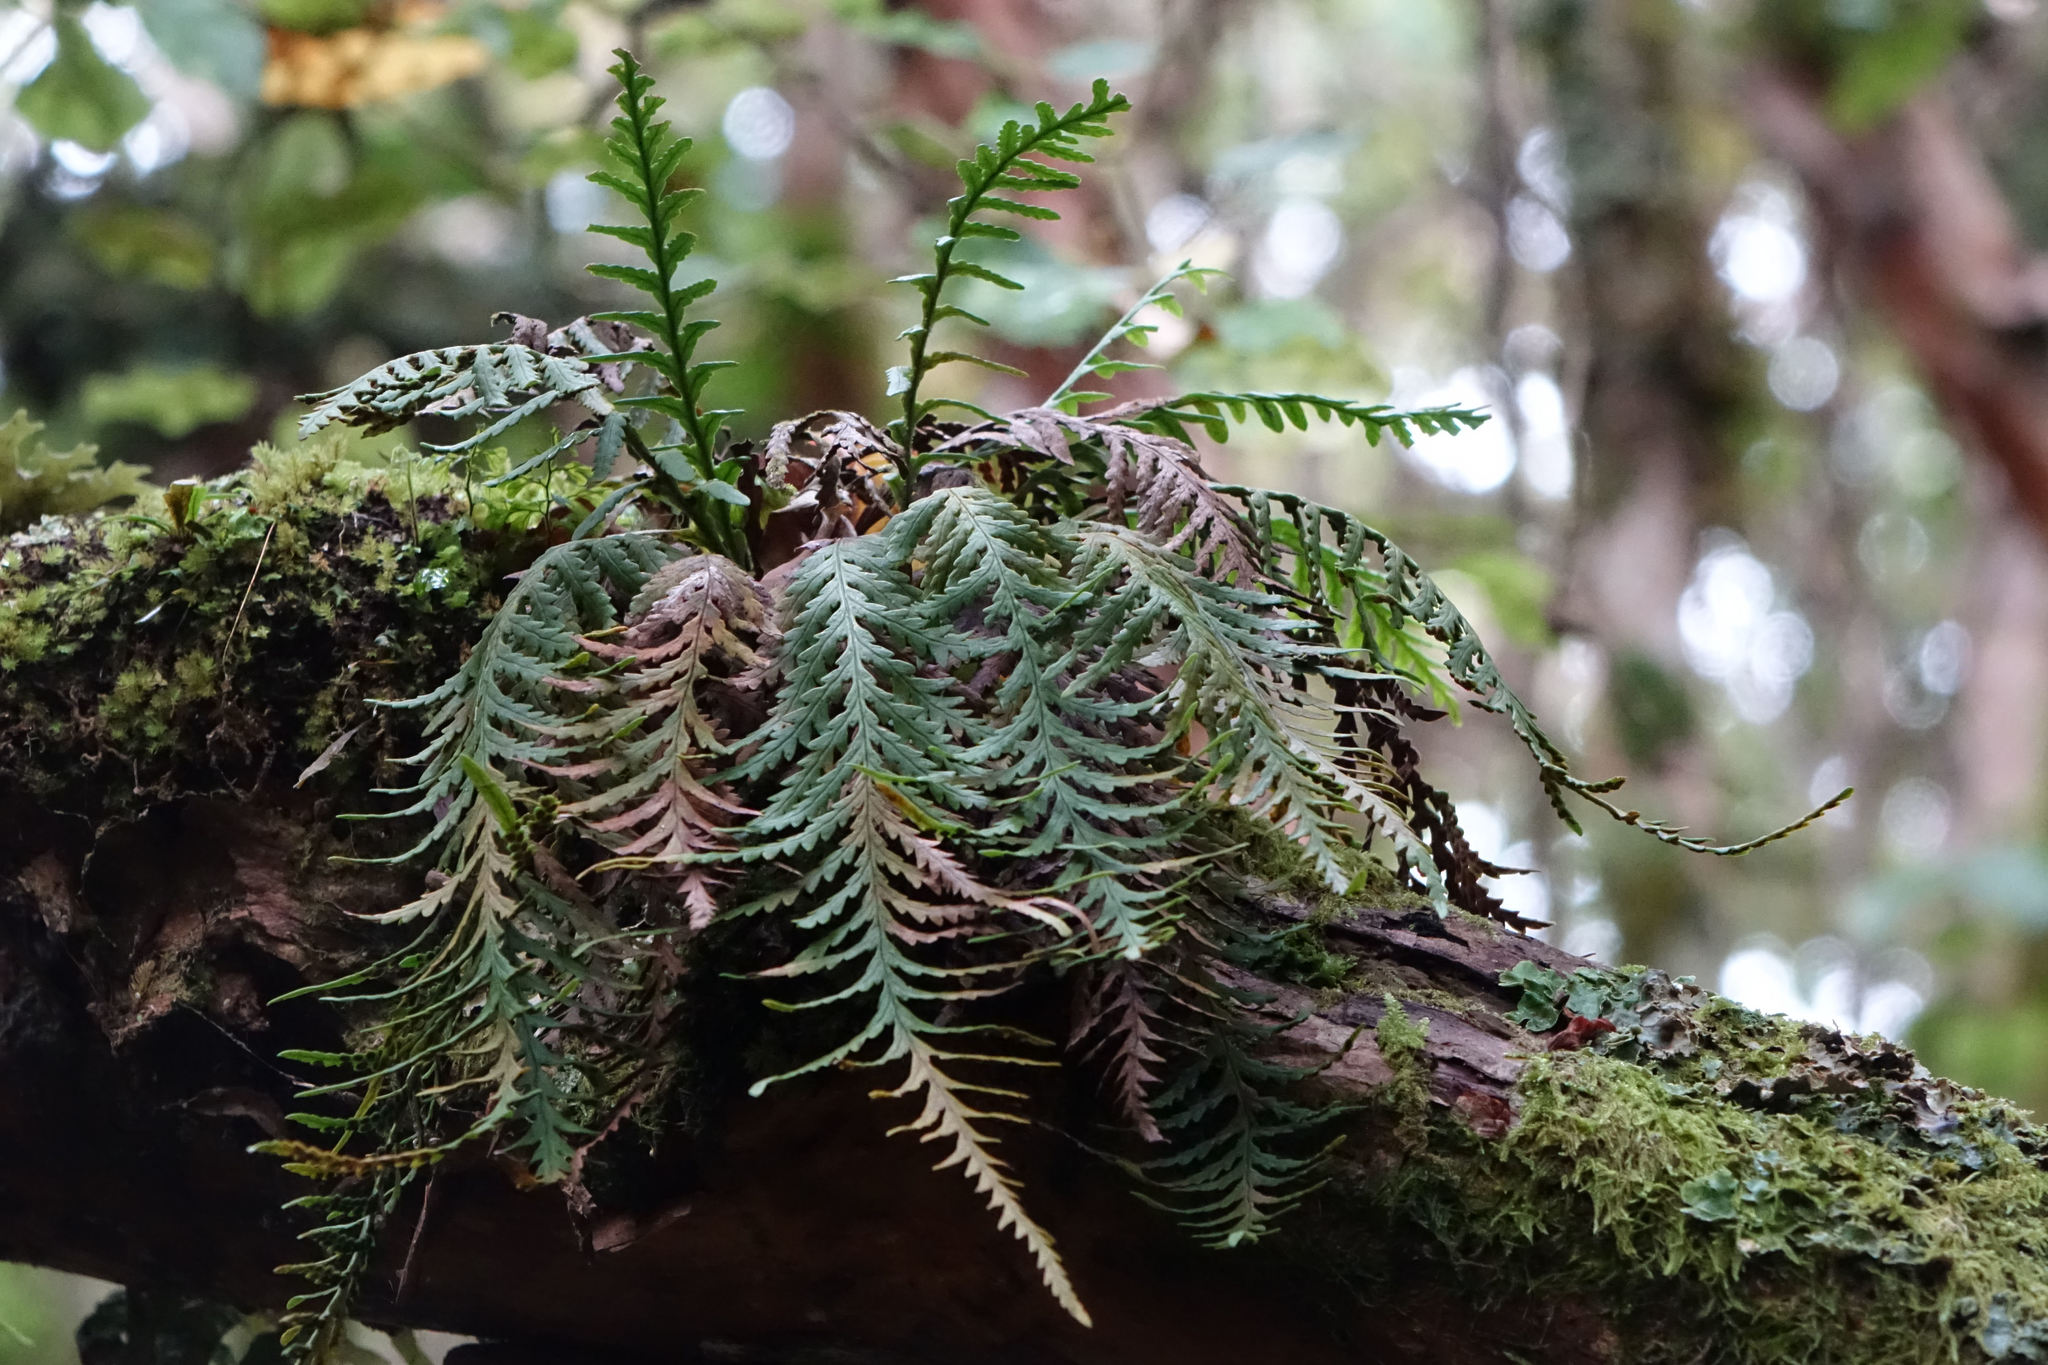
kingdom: Plantae
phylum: Tracheophyta
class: Polypodiopsida
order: Polypodiales
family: Polypodiaceae
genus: Notogrammitis
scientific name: Notogrammitis heterophylla
